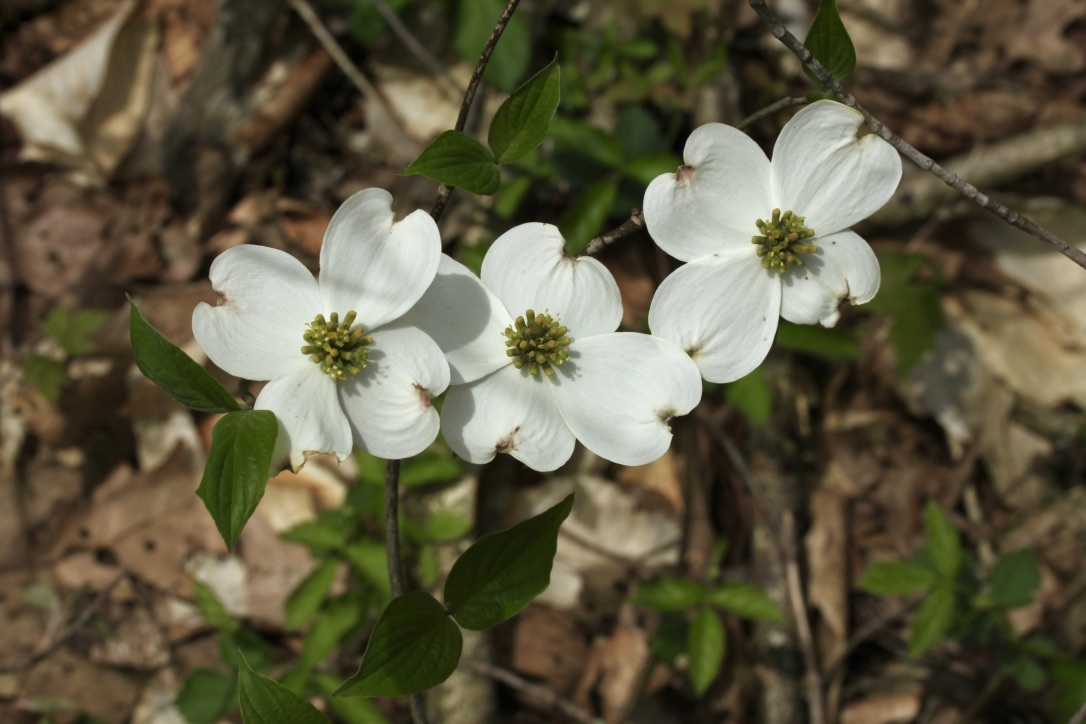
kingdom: Plantae
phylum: Tracheophyta
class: Magnoliopsida
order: Cornales
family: Cornaceae
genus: Cornus
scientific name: Cornus florida
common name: Flowering dogwood
